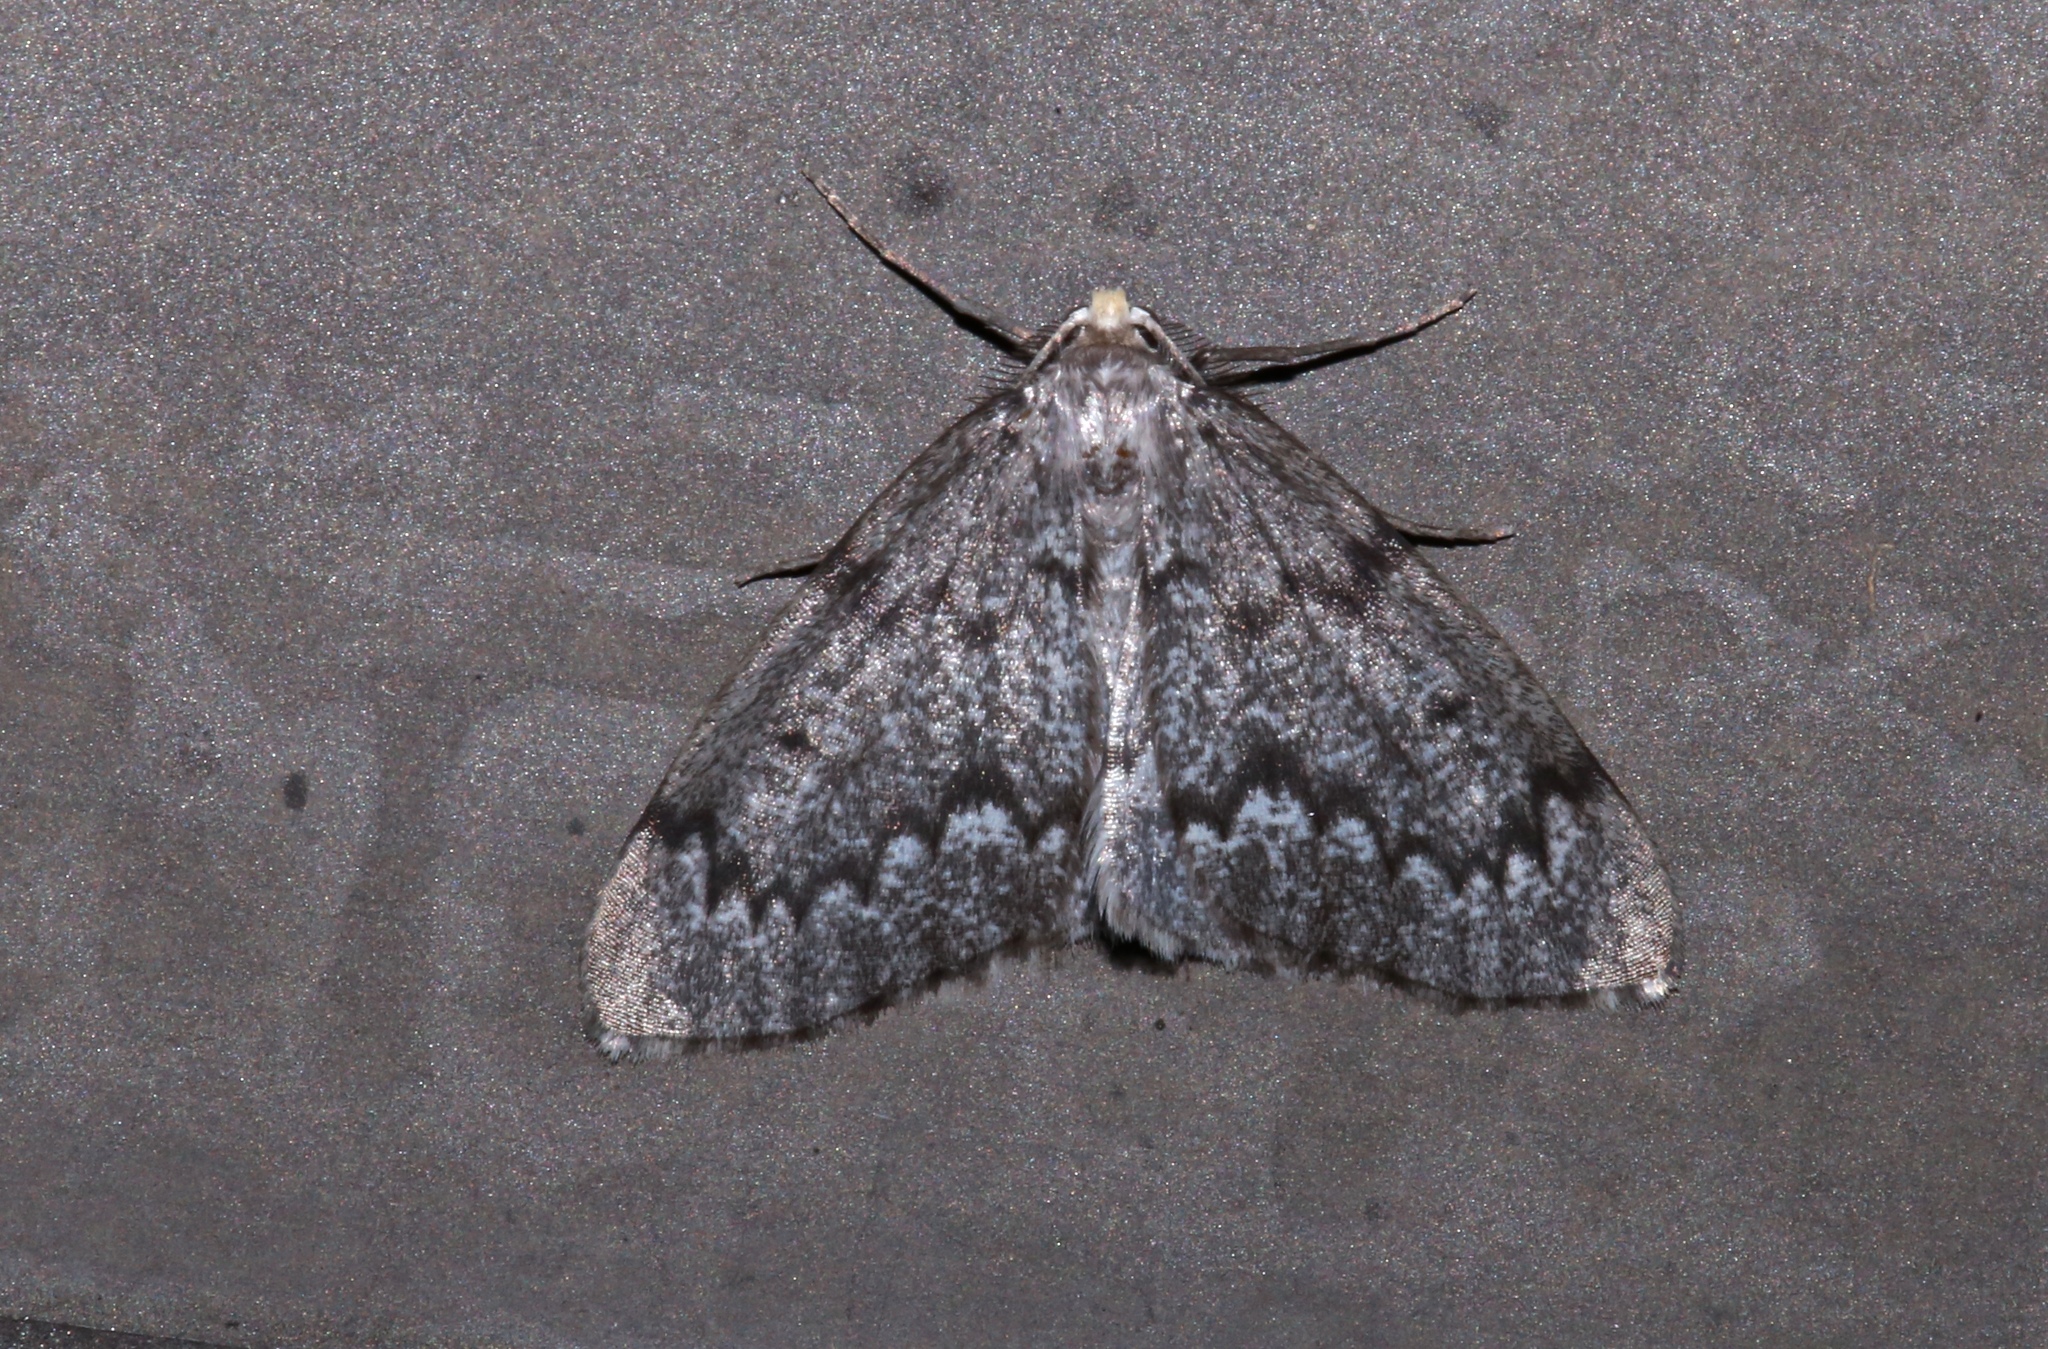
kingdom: Animalia
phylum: Arthropoda
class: Insecta
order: Lepidoptera
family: Geometridae
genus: Nepytia
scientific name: Nepytia canosaria
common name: False hemlock looper
